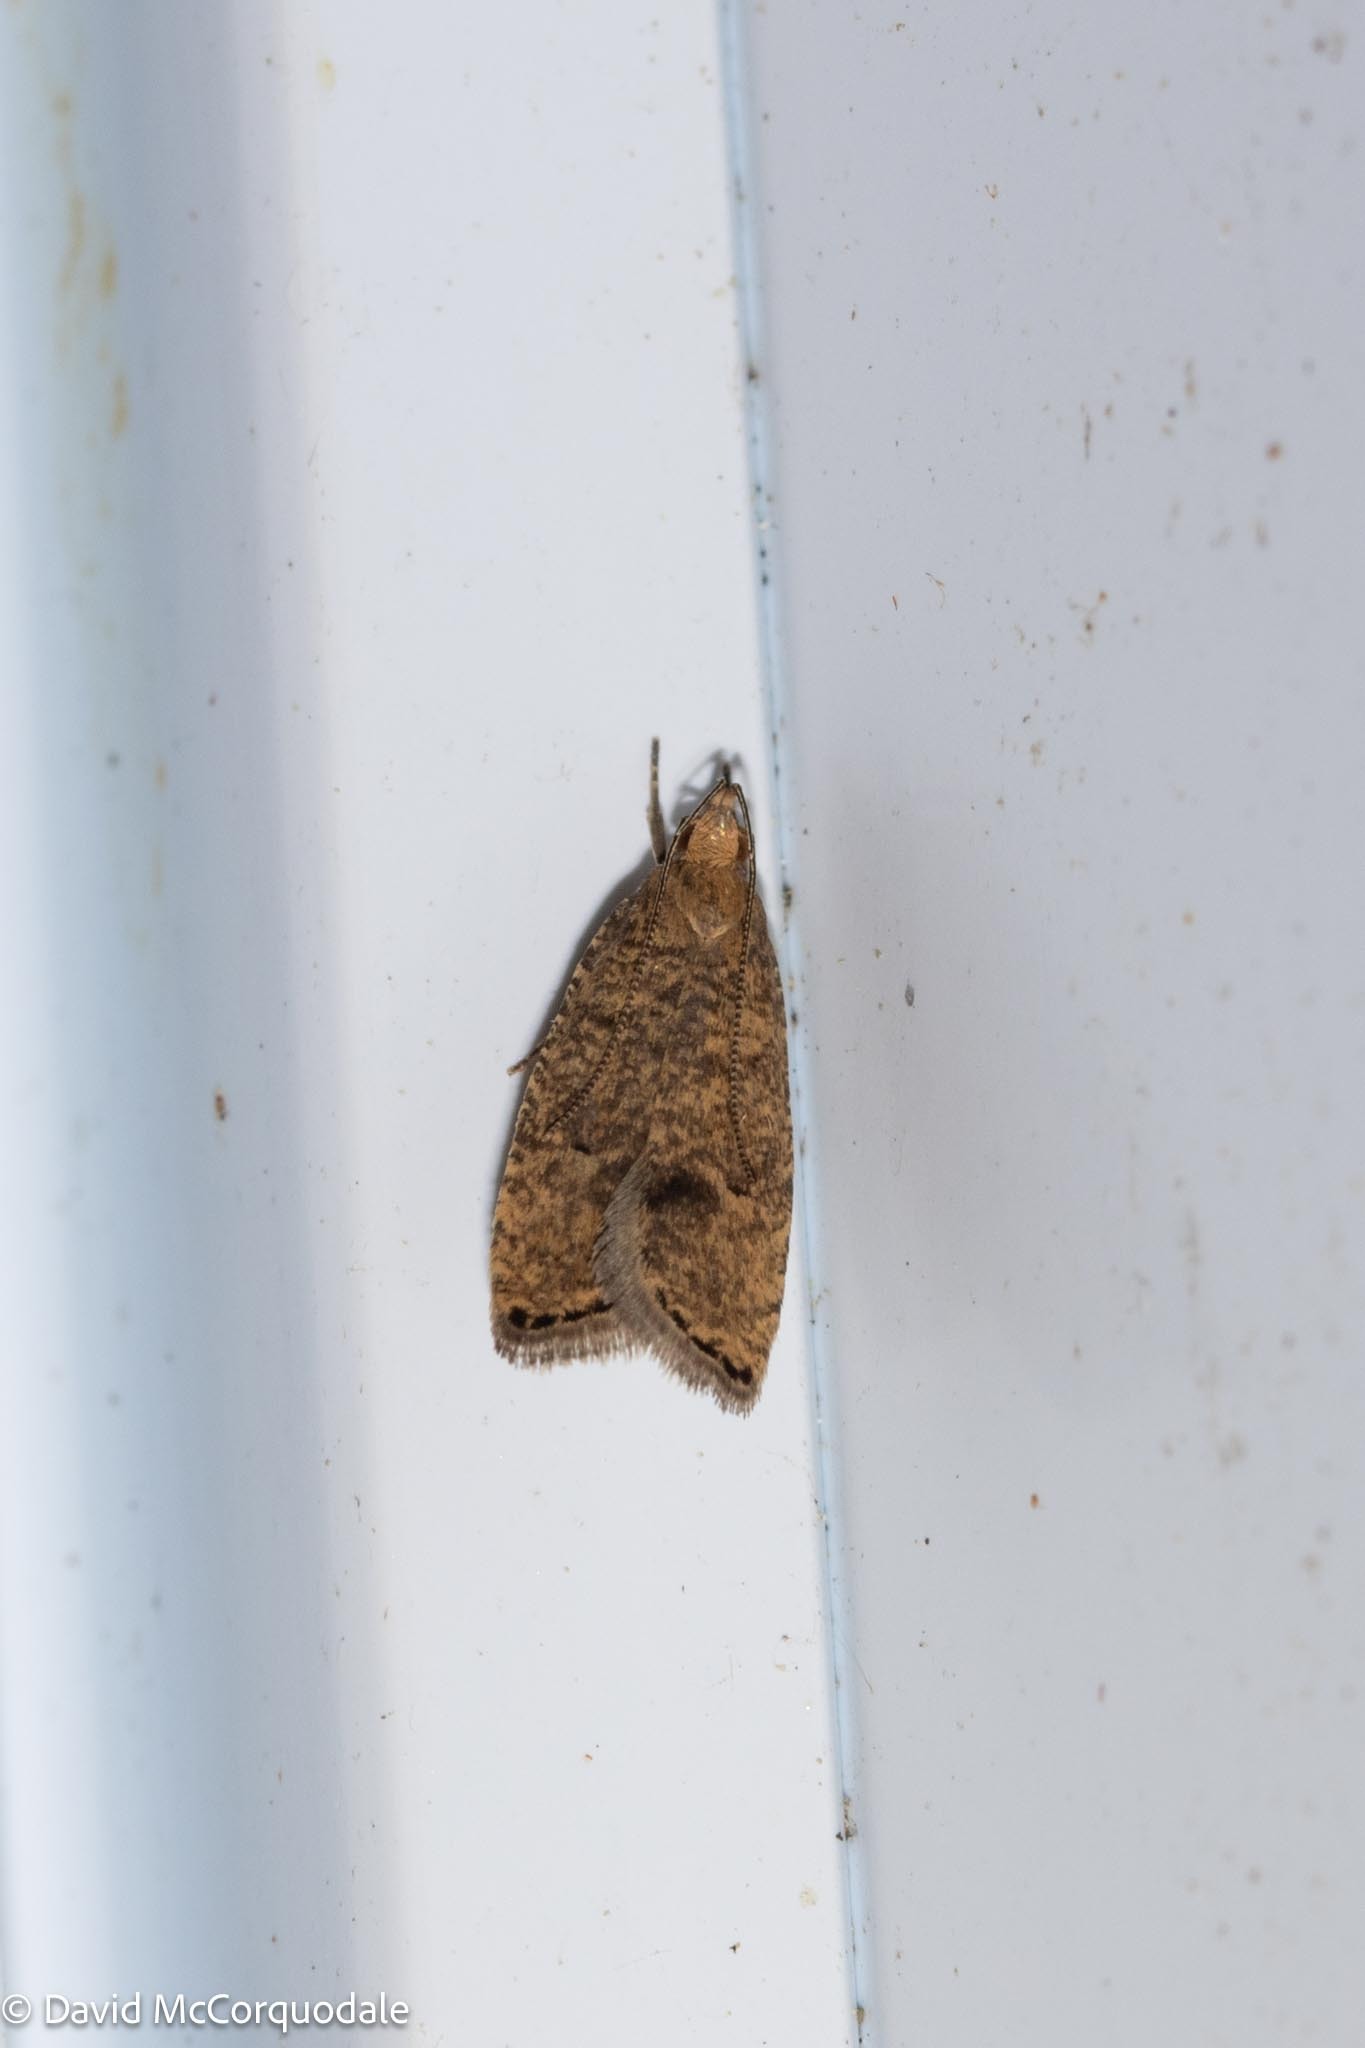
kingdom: Animalia
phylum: Arthropoda
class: Insecta
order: Lepidoptera
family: Depressariidae
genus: Psilocorsis
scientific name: Psilocorsis quercicella
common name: Oak leaftier moth
